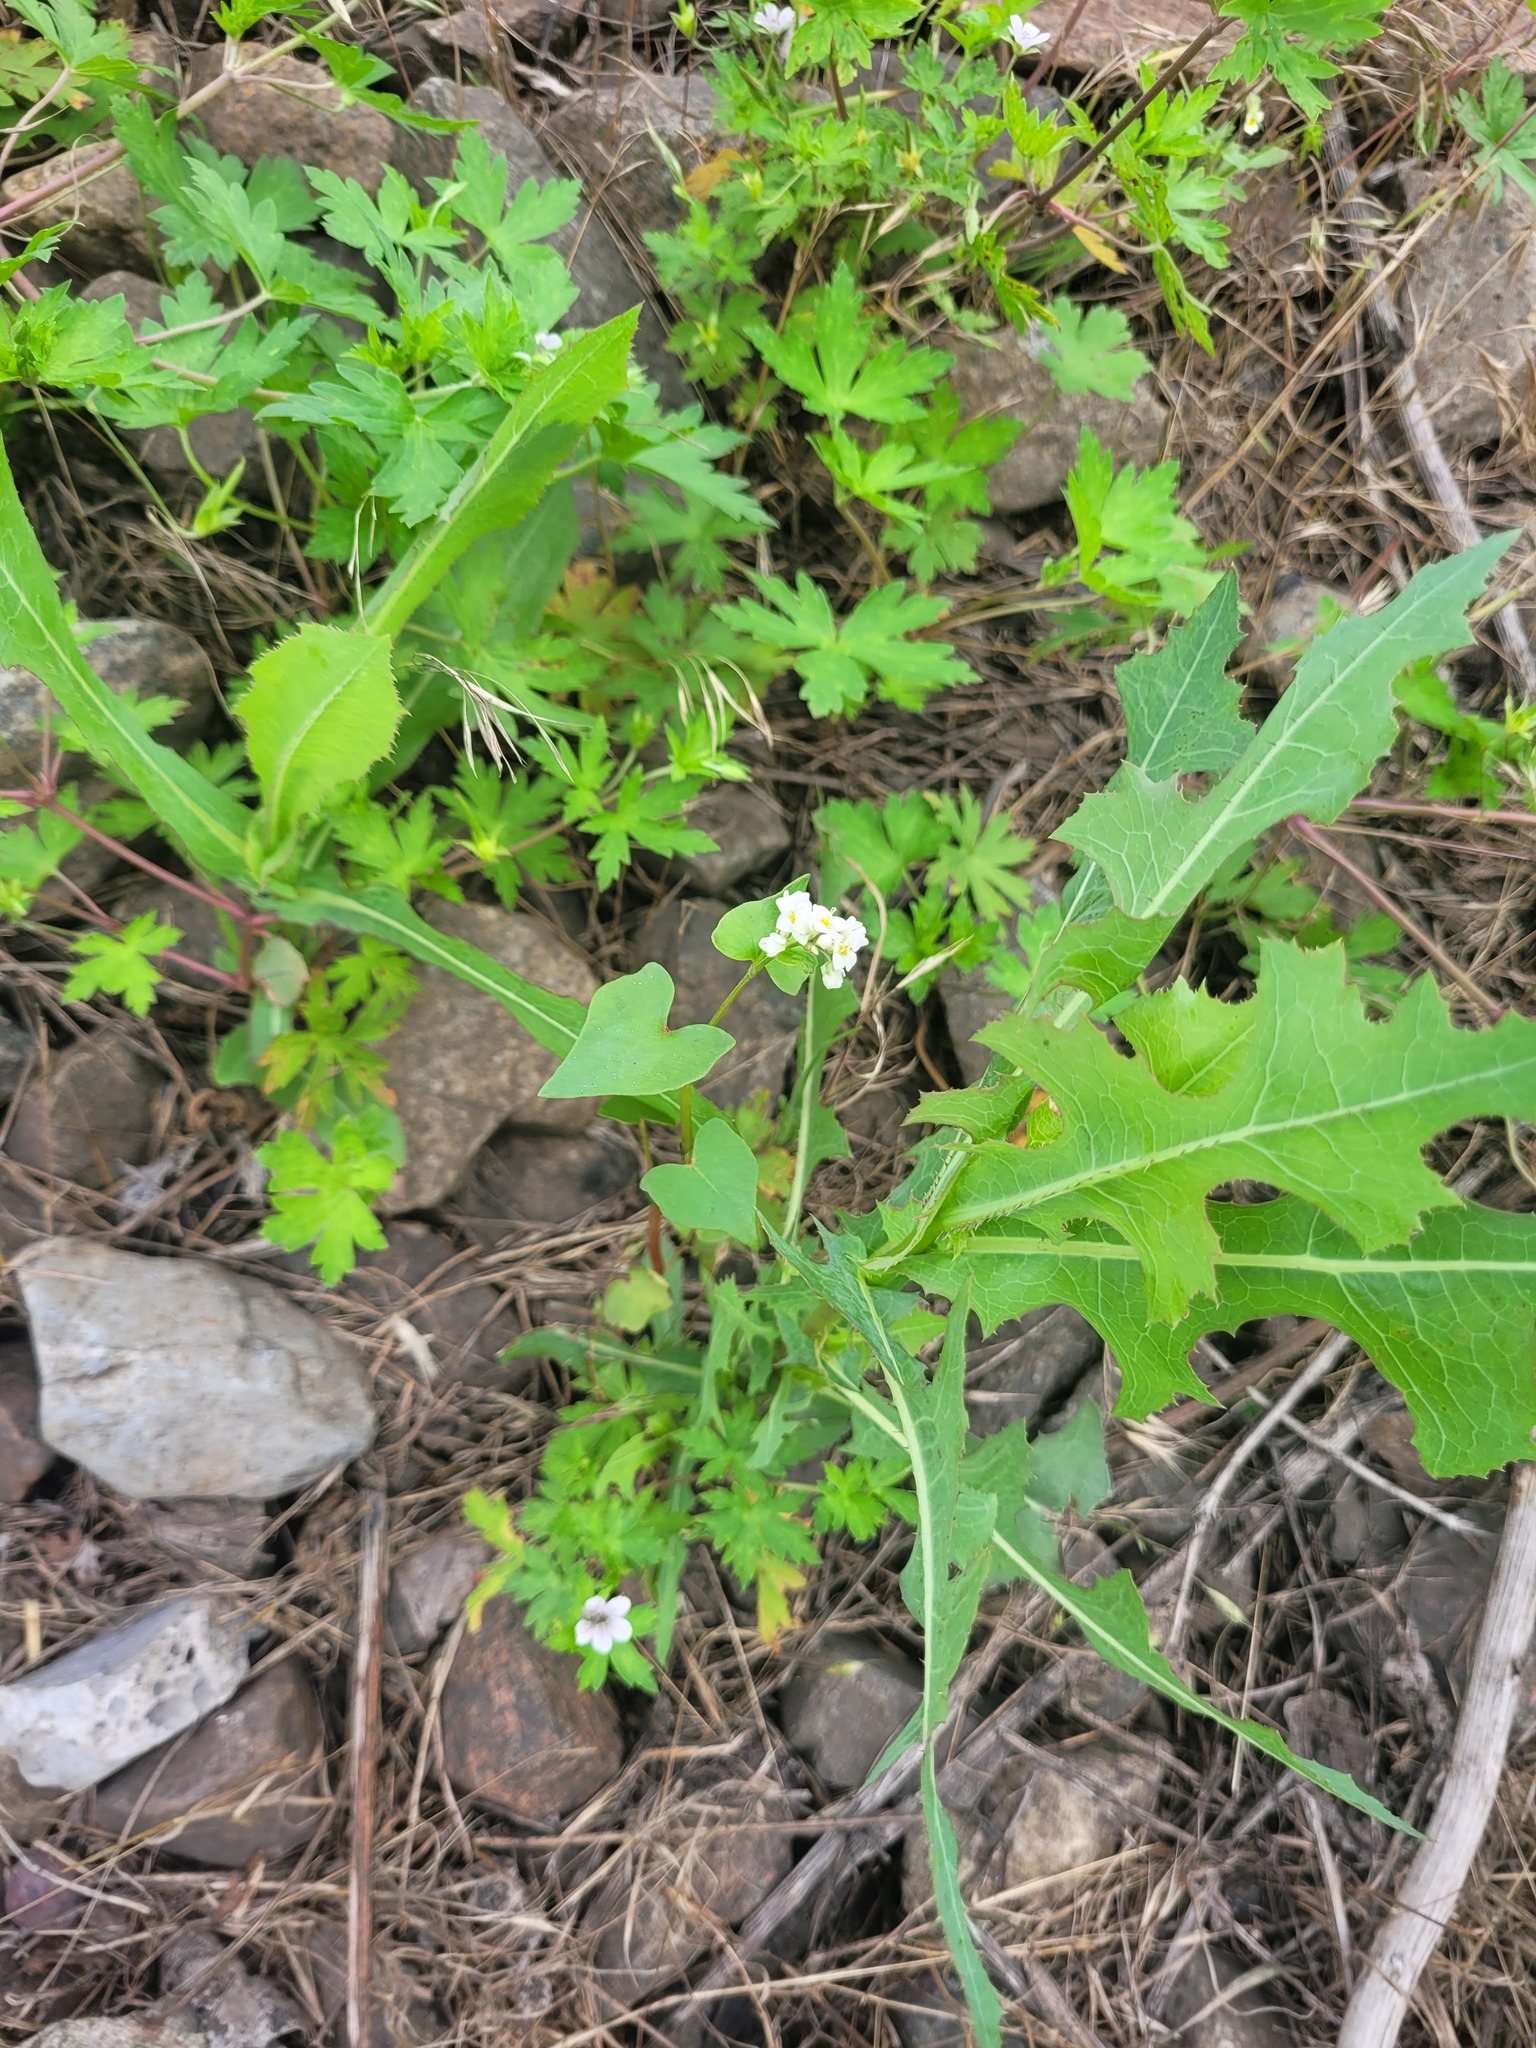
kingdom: Plantae
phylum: Tracheophyta
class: Magnoliopsida
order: Caryophyllales
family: Polygonaceae
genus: Fagopyrum
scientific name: Fagopyrum esculentum
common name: Buckwheat
